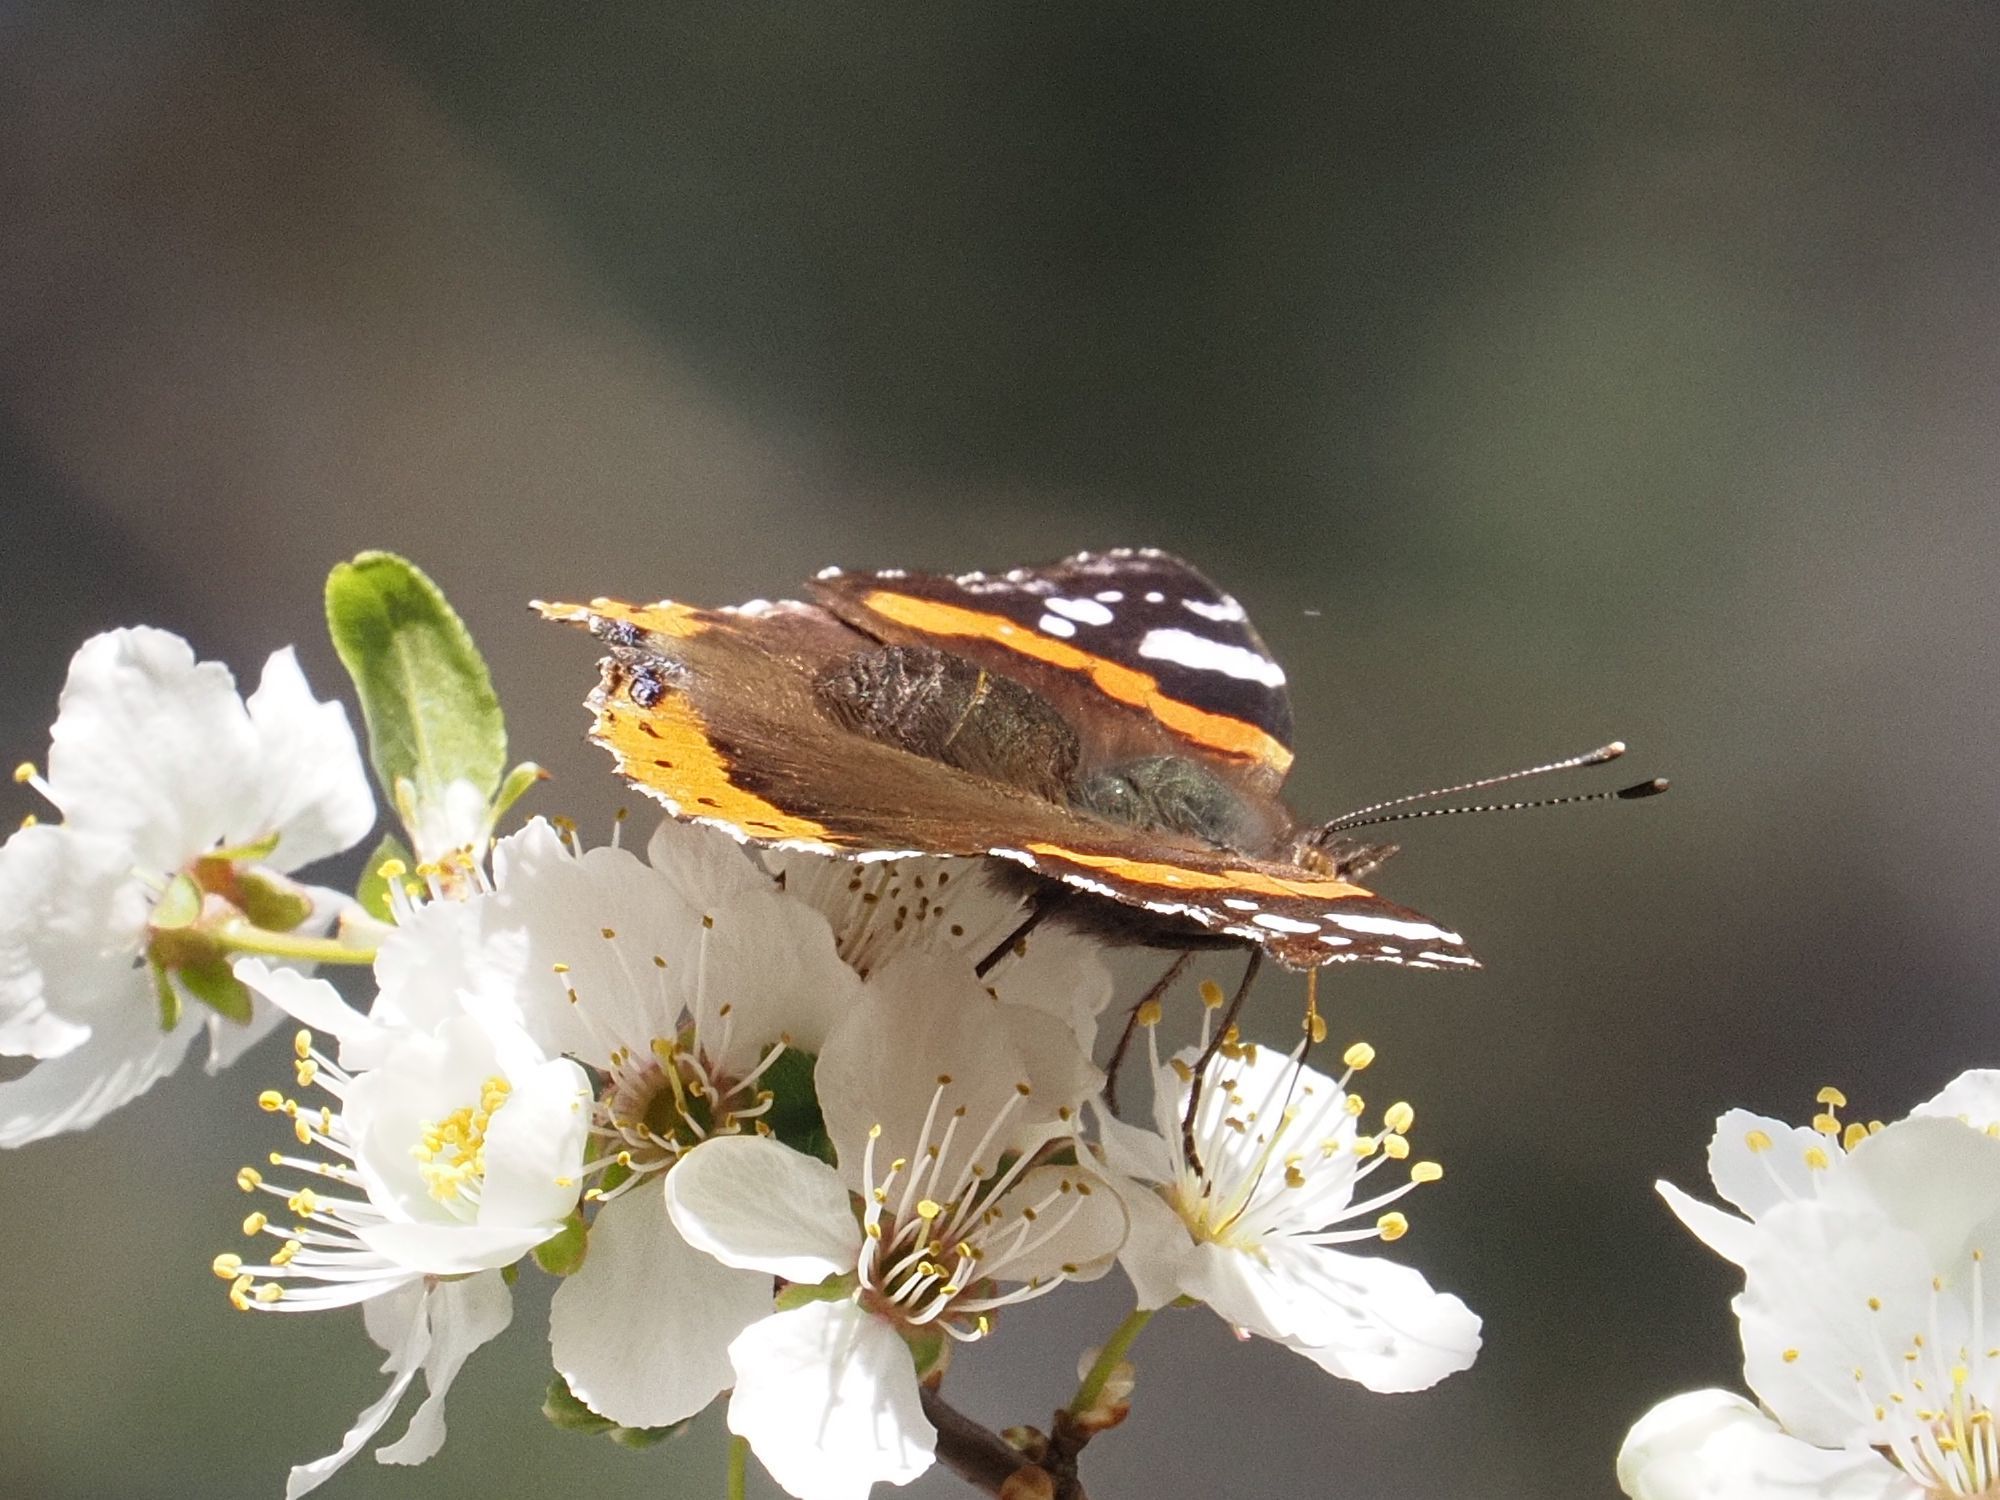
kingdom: Animalia
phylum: Arthropoda
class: Insecta
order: Lepidoptera
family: Nymphalidae
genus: Vanessa
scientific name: Vanessa atalanta
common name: Red admiral
